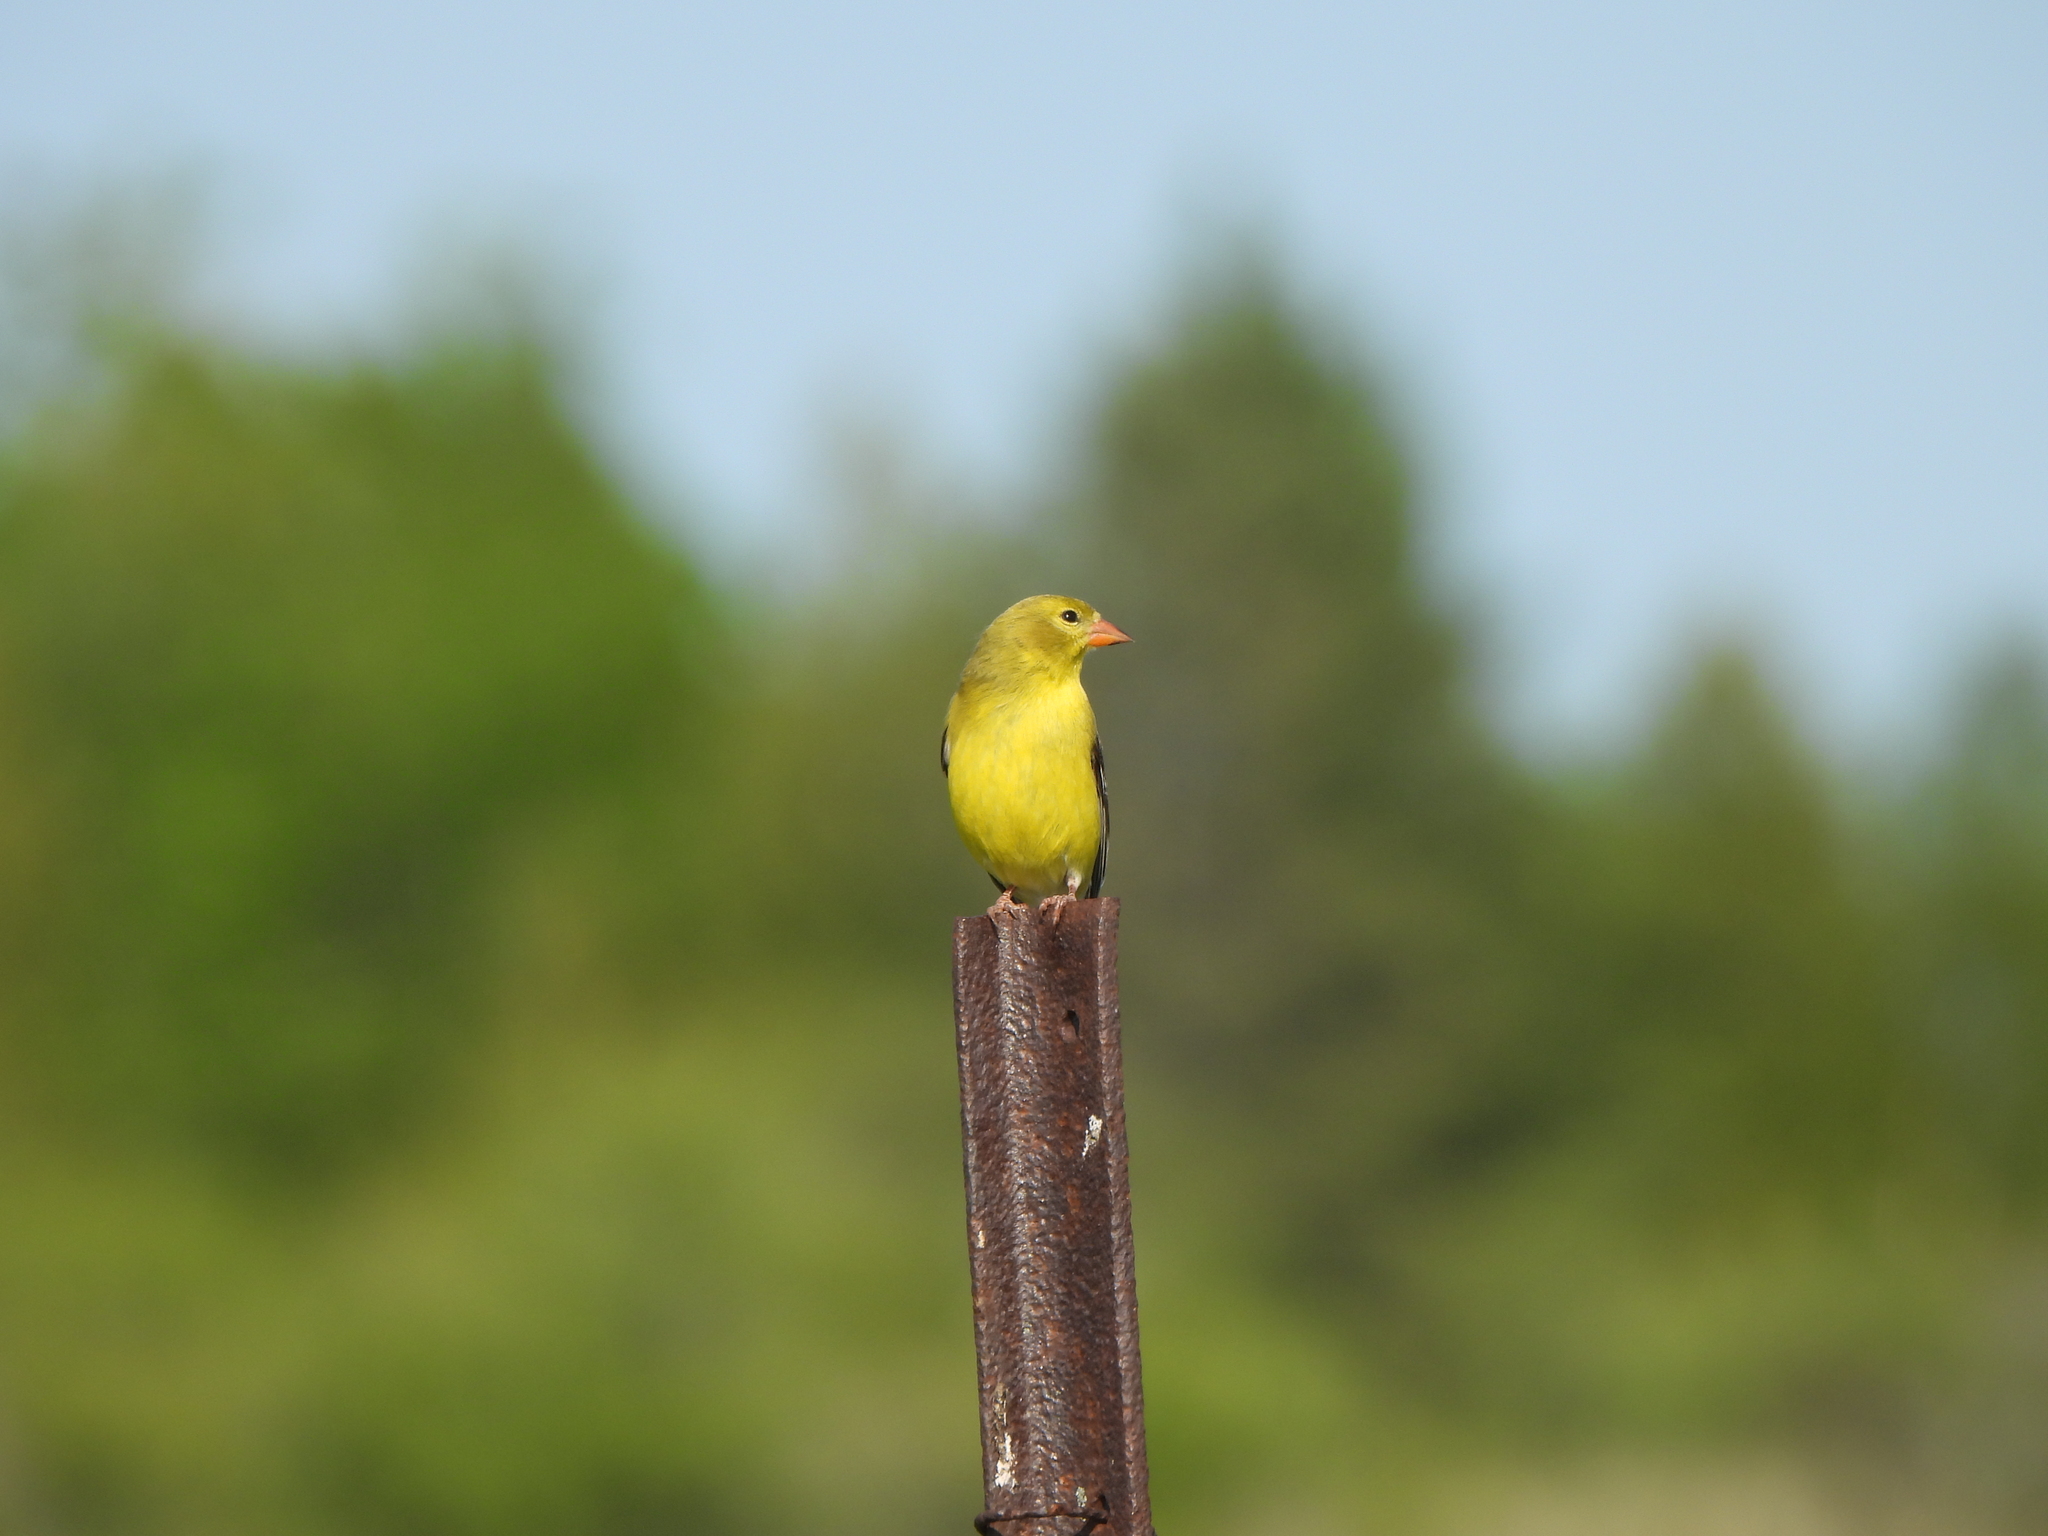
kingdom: Animalia
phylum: Chordata
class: Aves
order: Passeriformes
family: Fringillidae
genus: Spinus
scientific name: Spinus tristis
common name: American goldfinch
